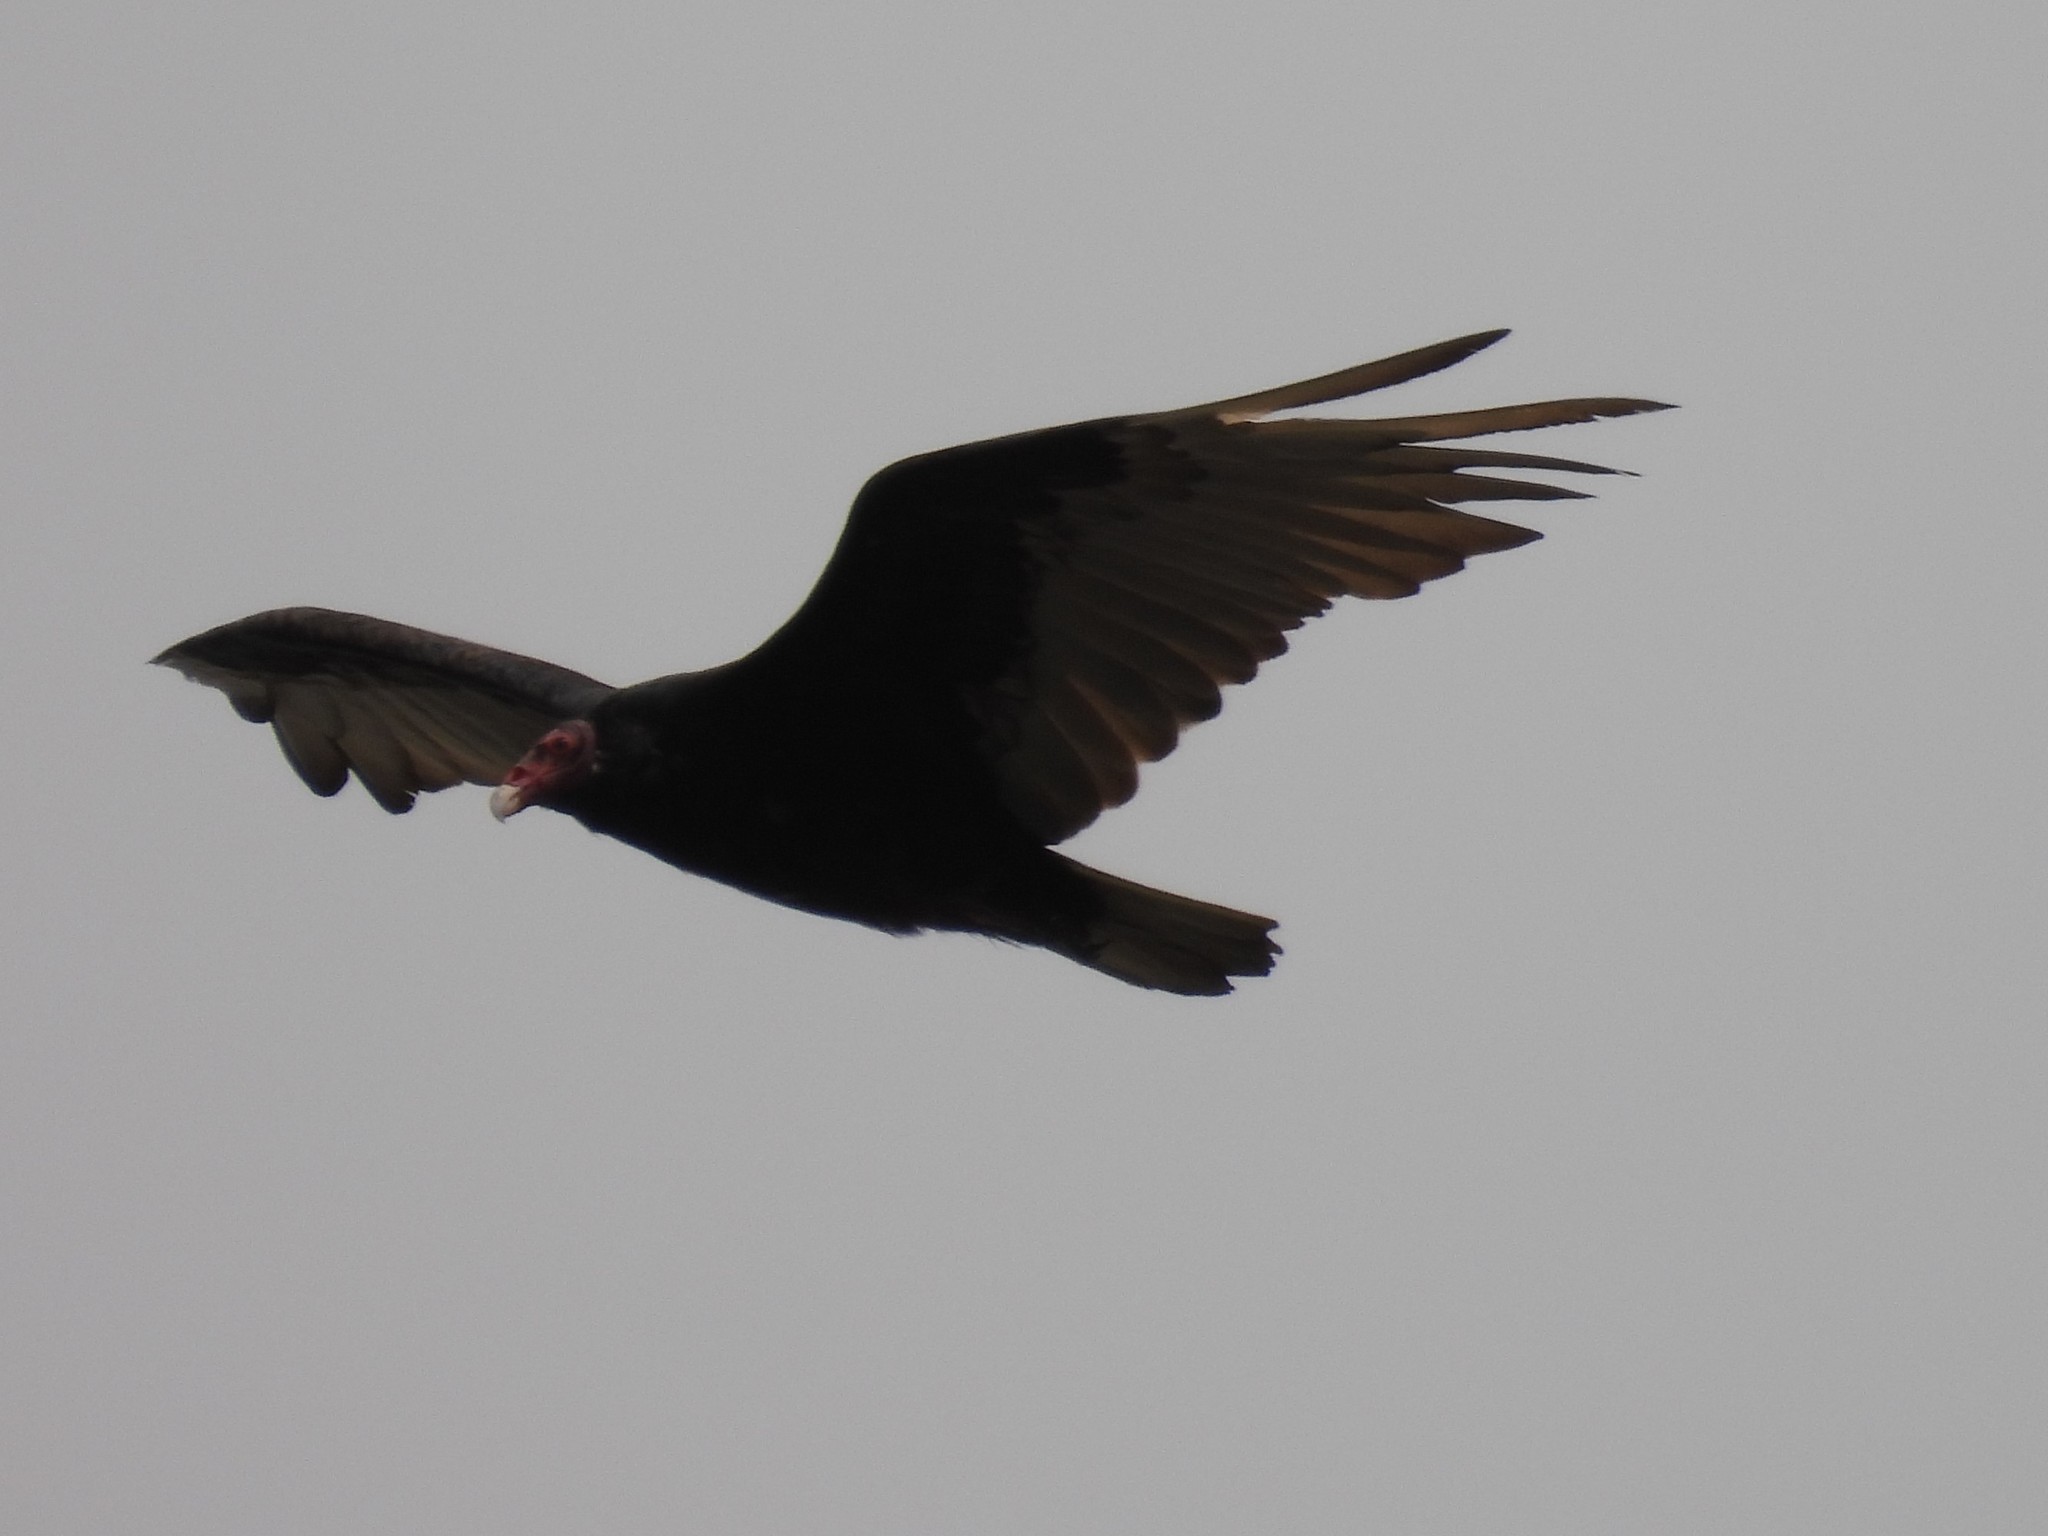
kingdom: Animalia
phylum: Chordata
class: Aves
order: Accipitriformes
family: Cathartidae
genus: Cathartes
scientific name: Cathartes aura
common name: Turkey vulture
